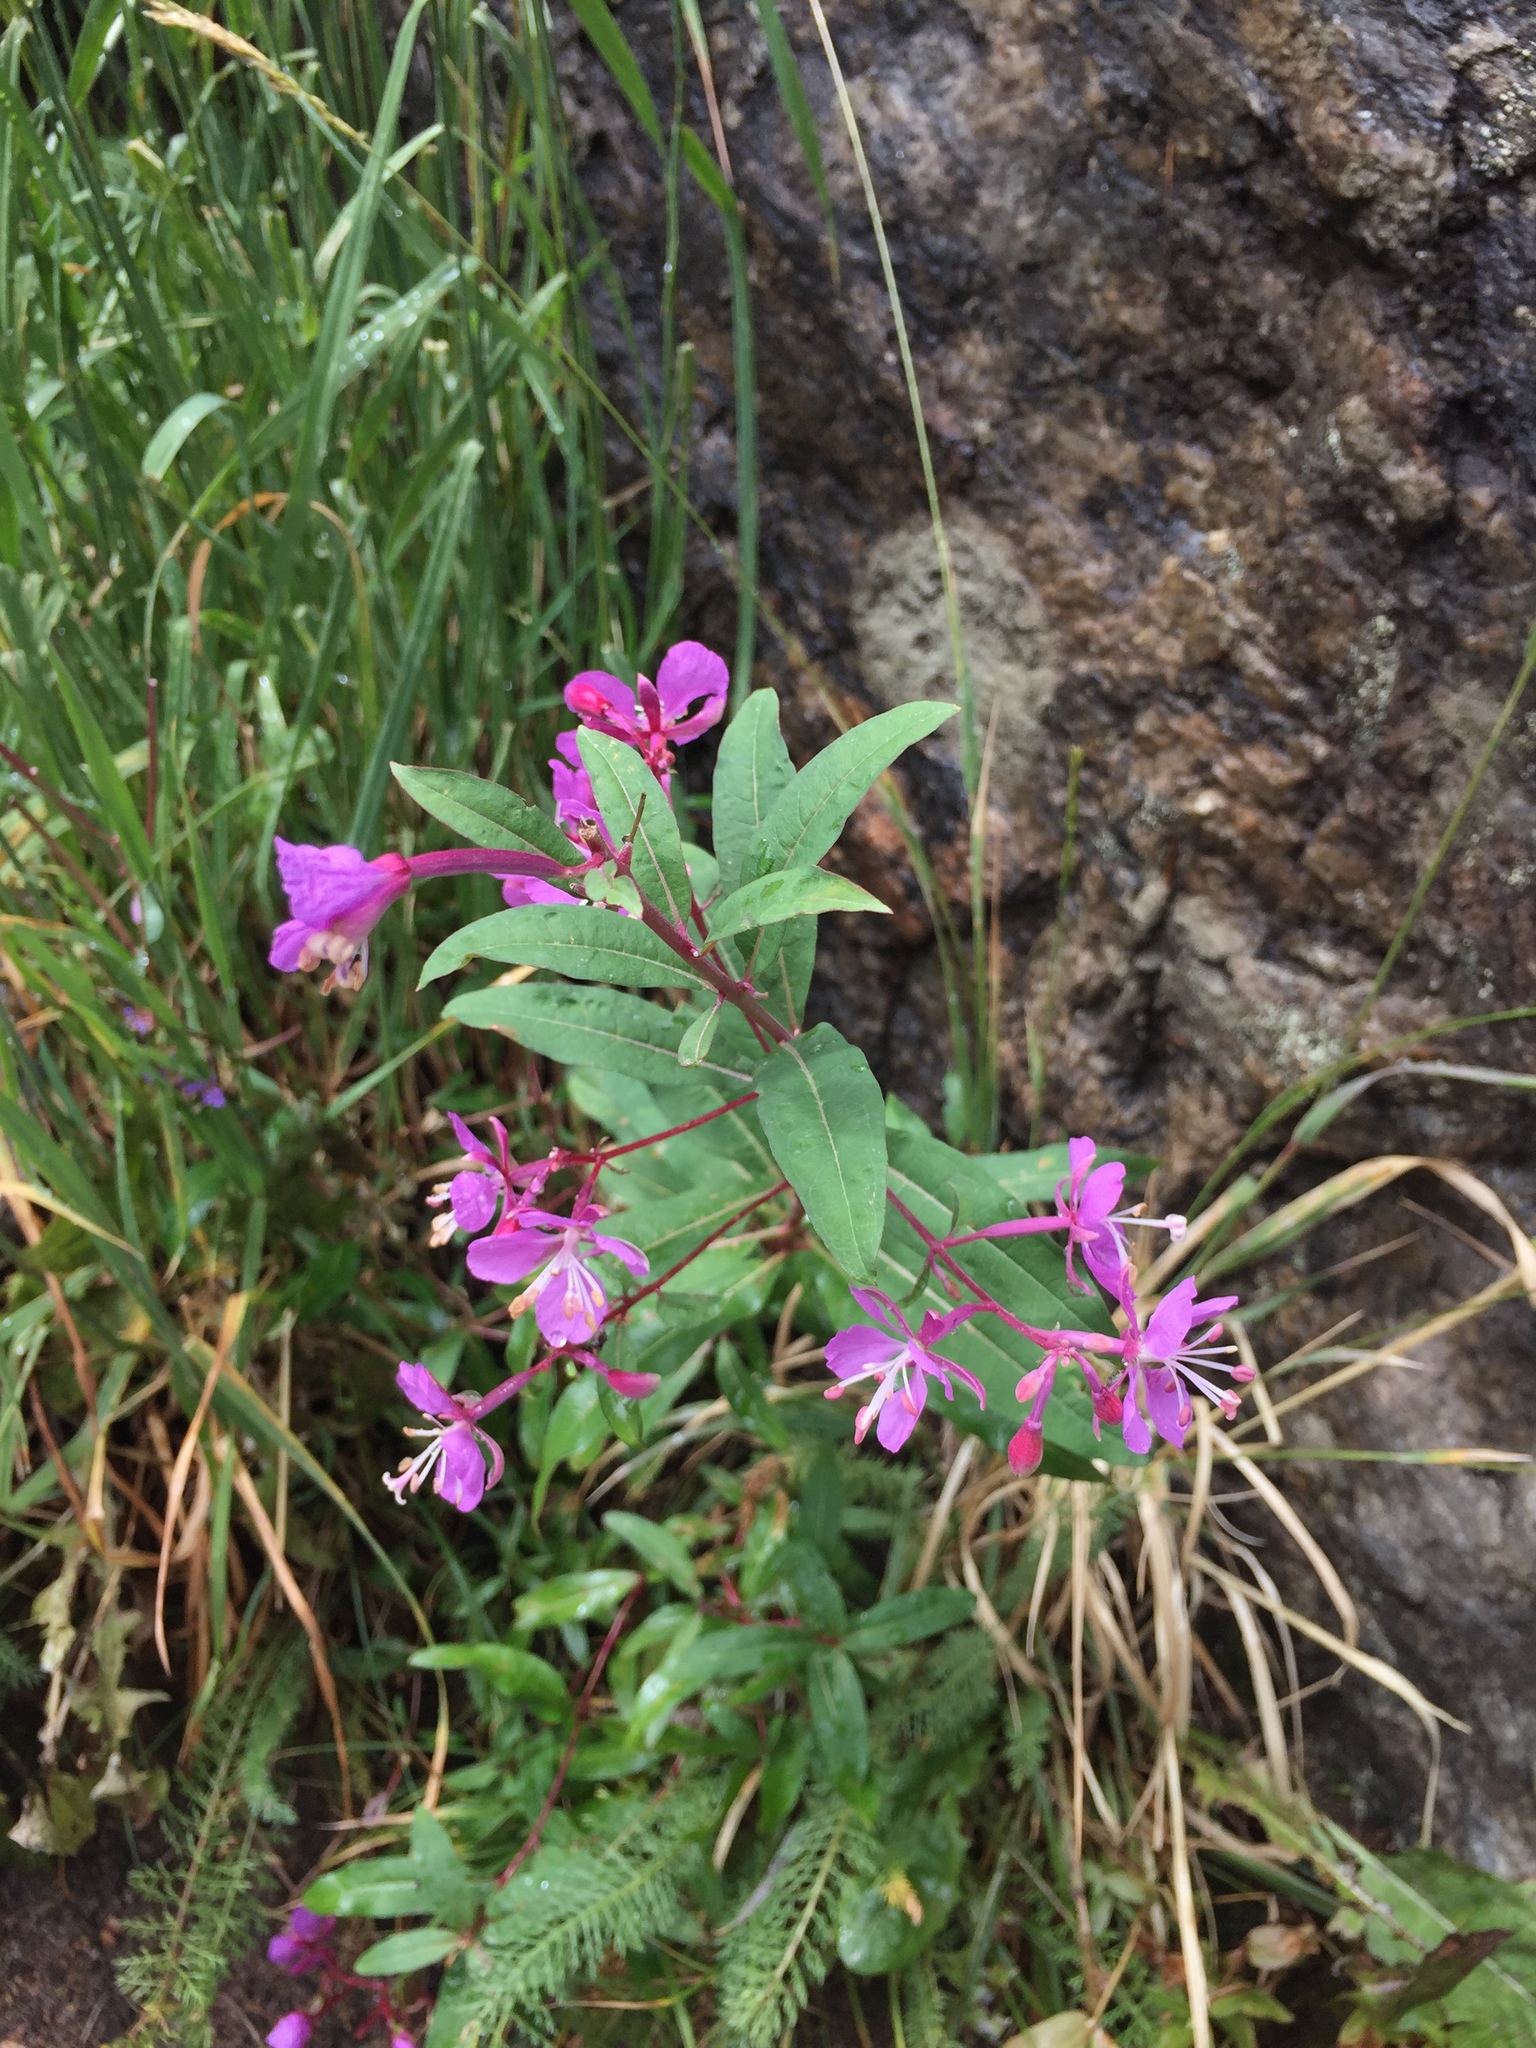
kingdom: Plantae
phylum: Tracheophyta
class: Magnoliopsida
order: Myrtales
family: Onagraceae
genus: Chamaenerion
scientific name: Chamaenerion angustifolium
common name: Fireweed
